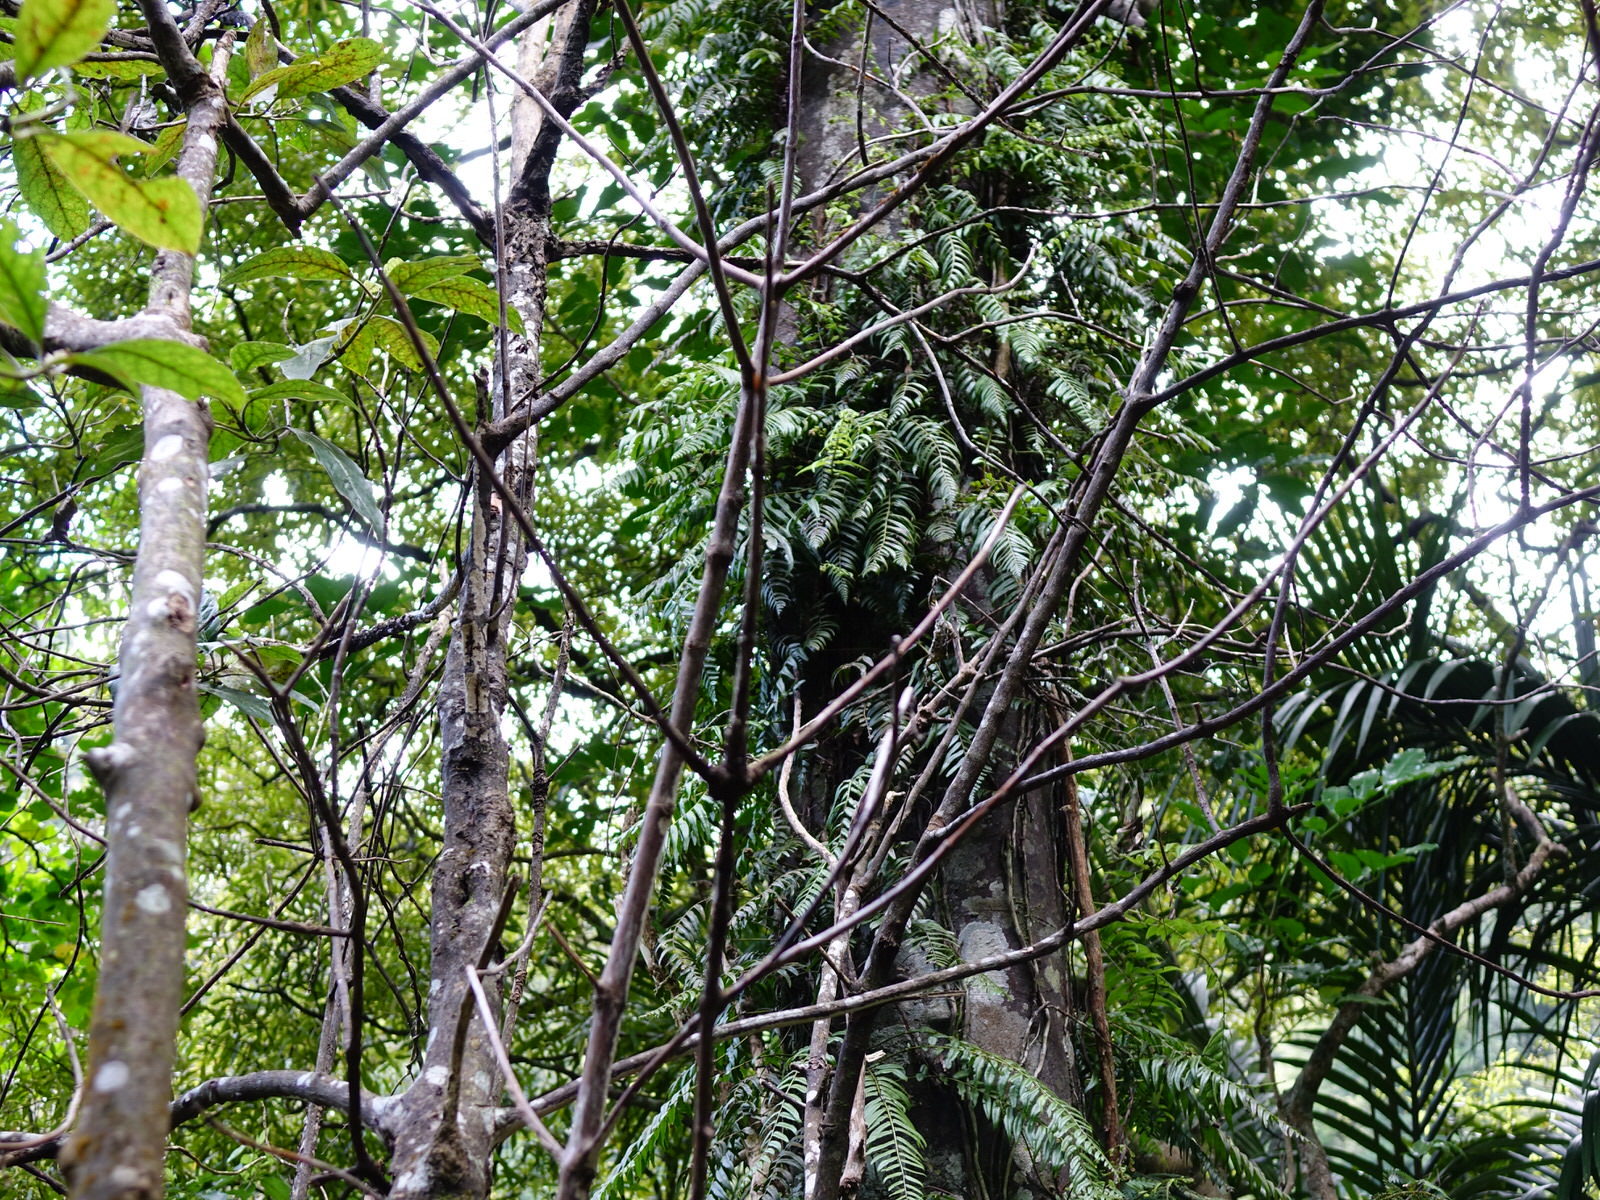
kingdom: Plantae
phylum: Tracheophyta
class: Magnoliopsida
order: Gentianales
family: Rubiaceae
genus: Coprosma
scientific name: Coprosma autumnalis
